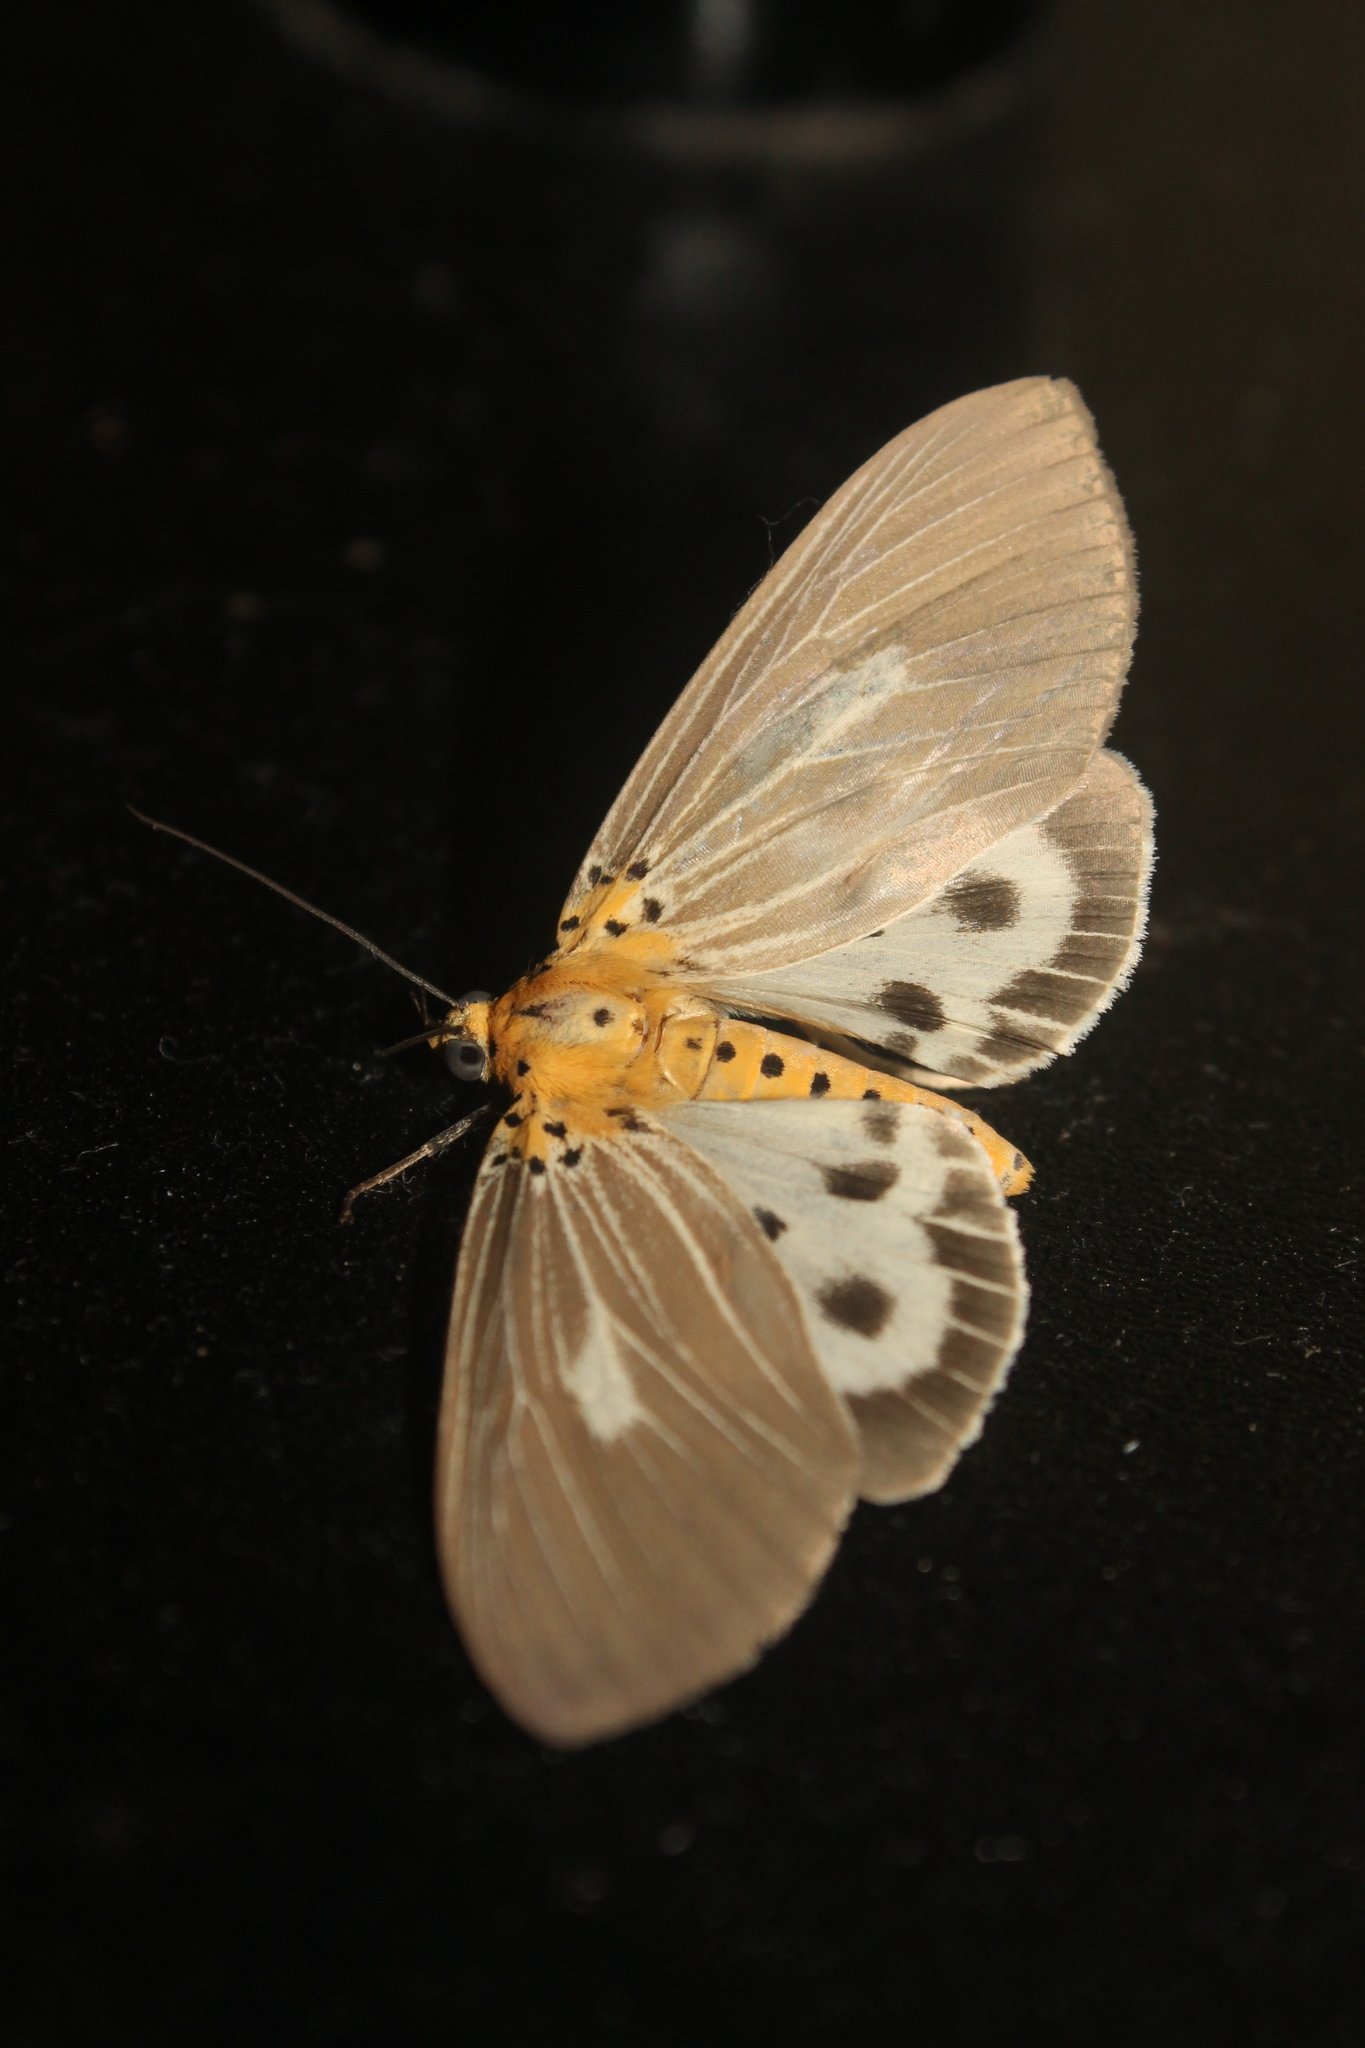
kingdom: Animalia
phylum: Arthropoda
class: Insecta
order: Lepidoptera
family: Erebidae
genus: Asota
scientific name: Asota canaraica
